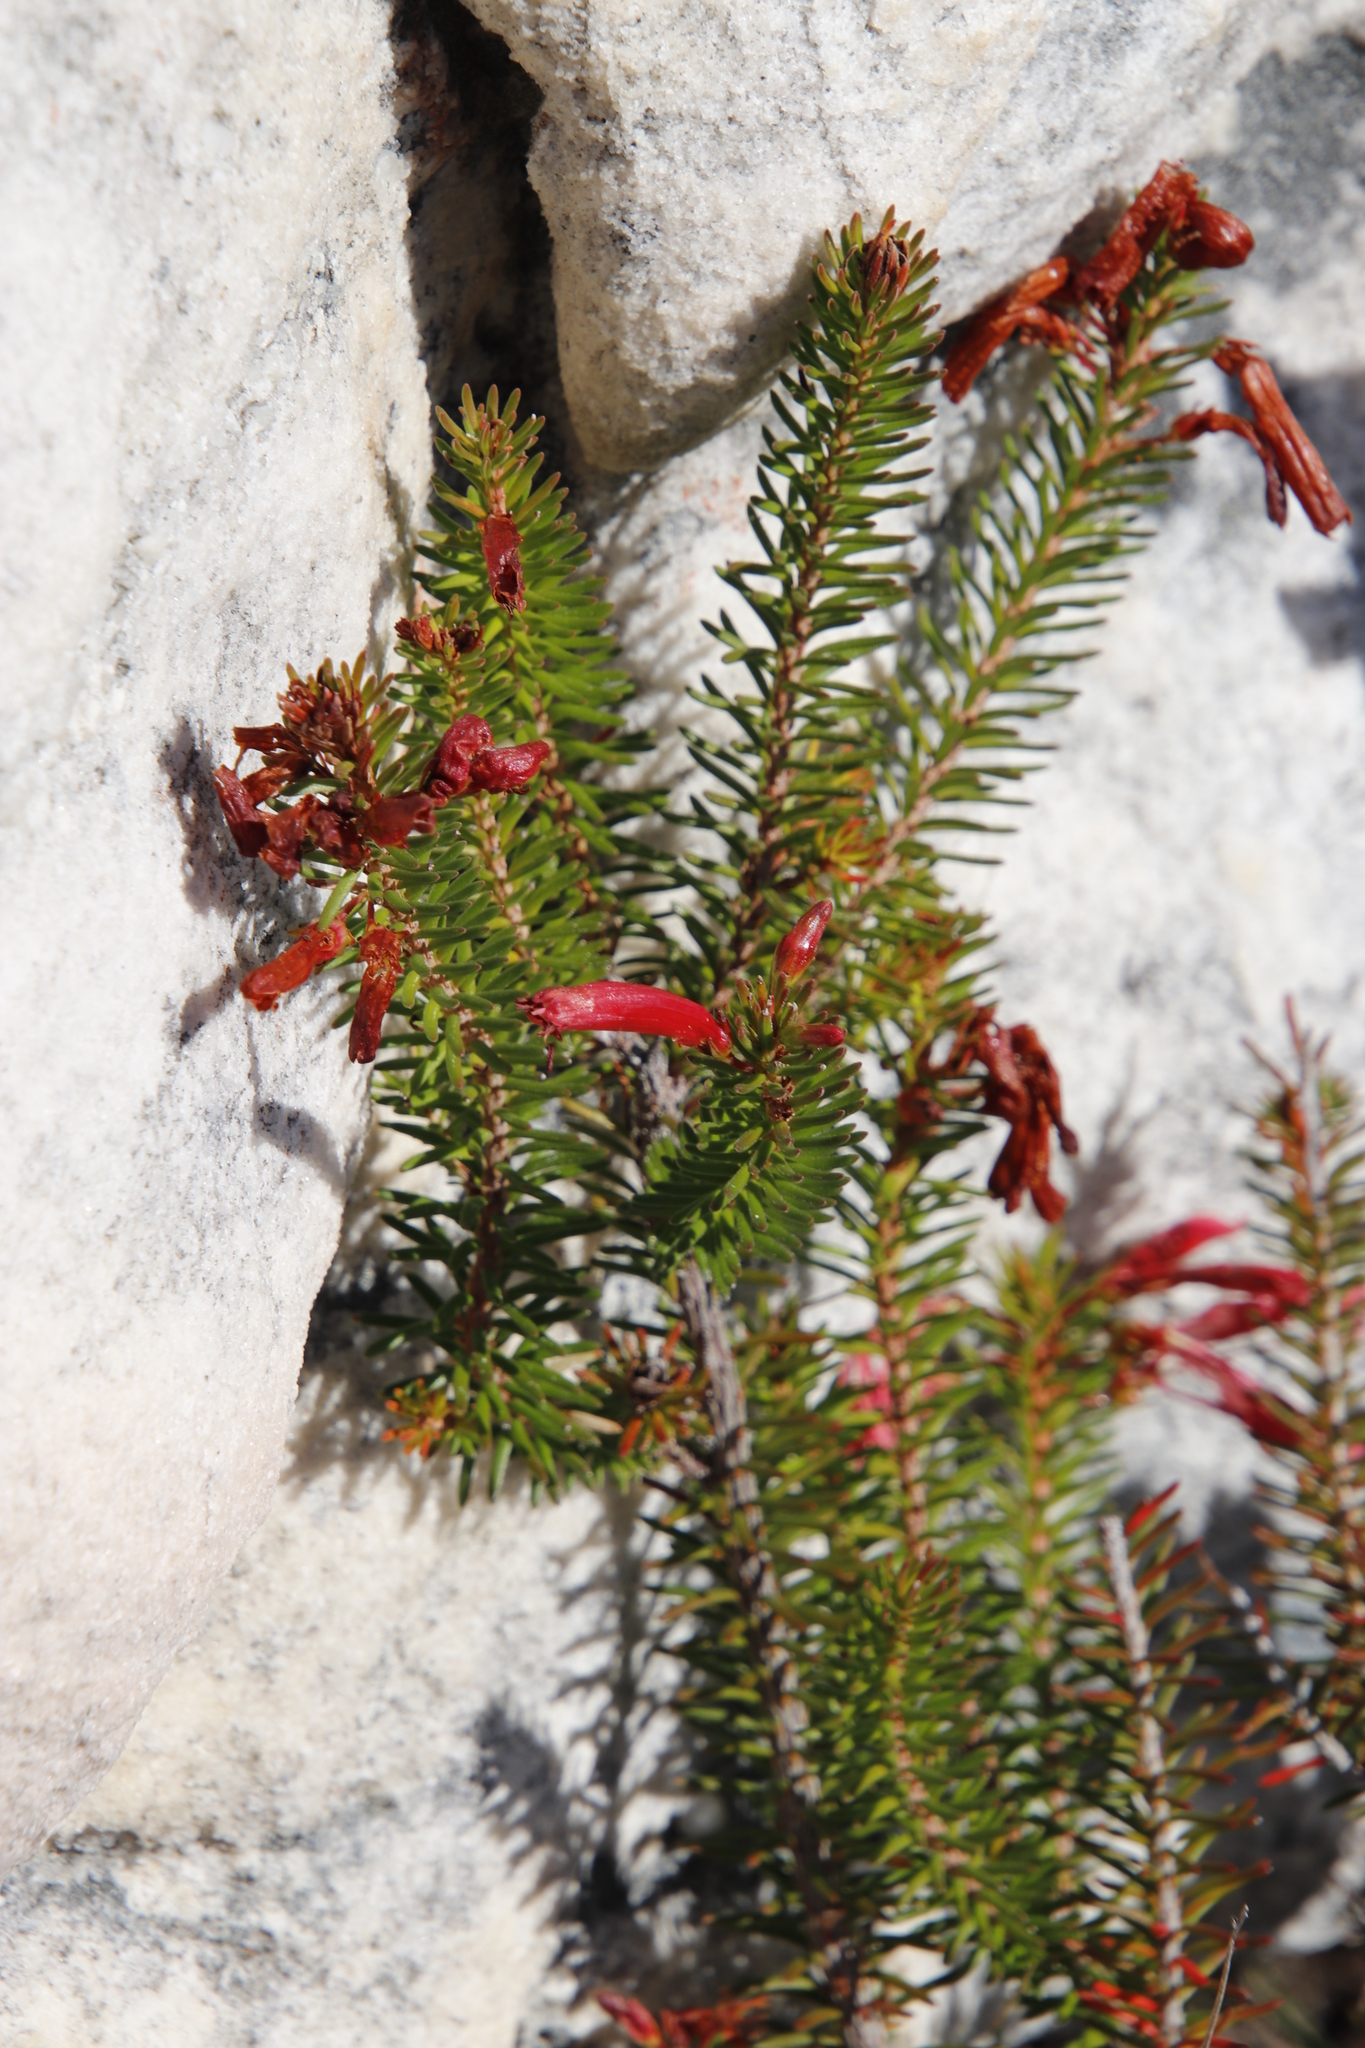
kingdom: Plantae
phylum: Tracheophyta
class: Magnoliopsida
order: Ericales
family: Ericaceae
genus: Erica
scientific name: Erica nevillei
